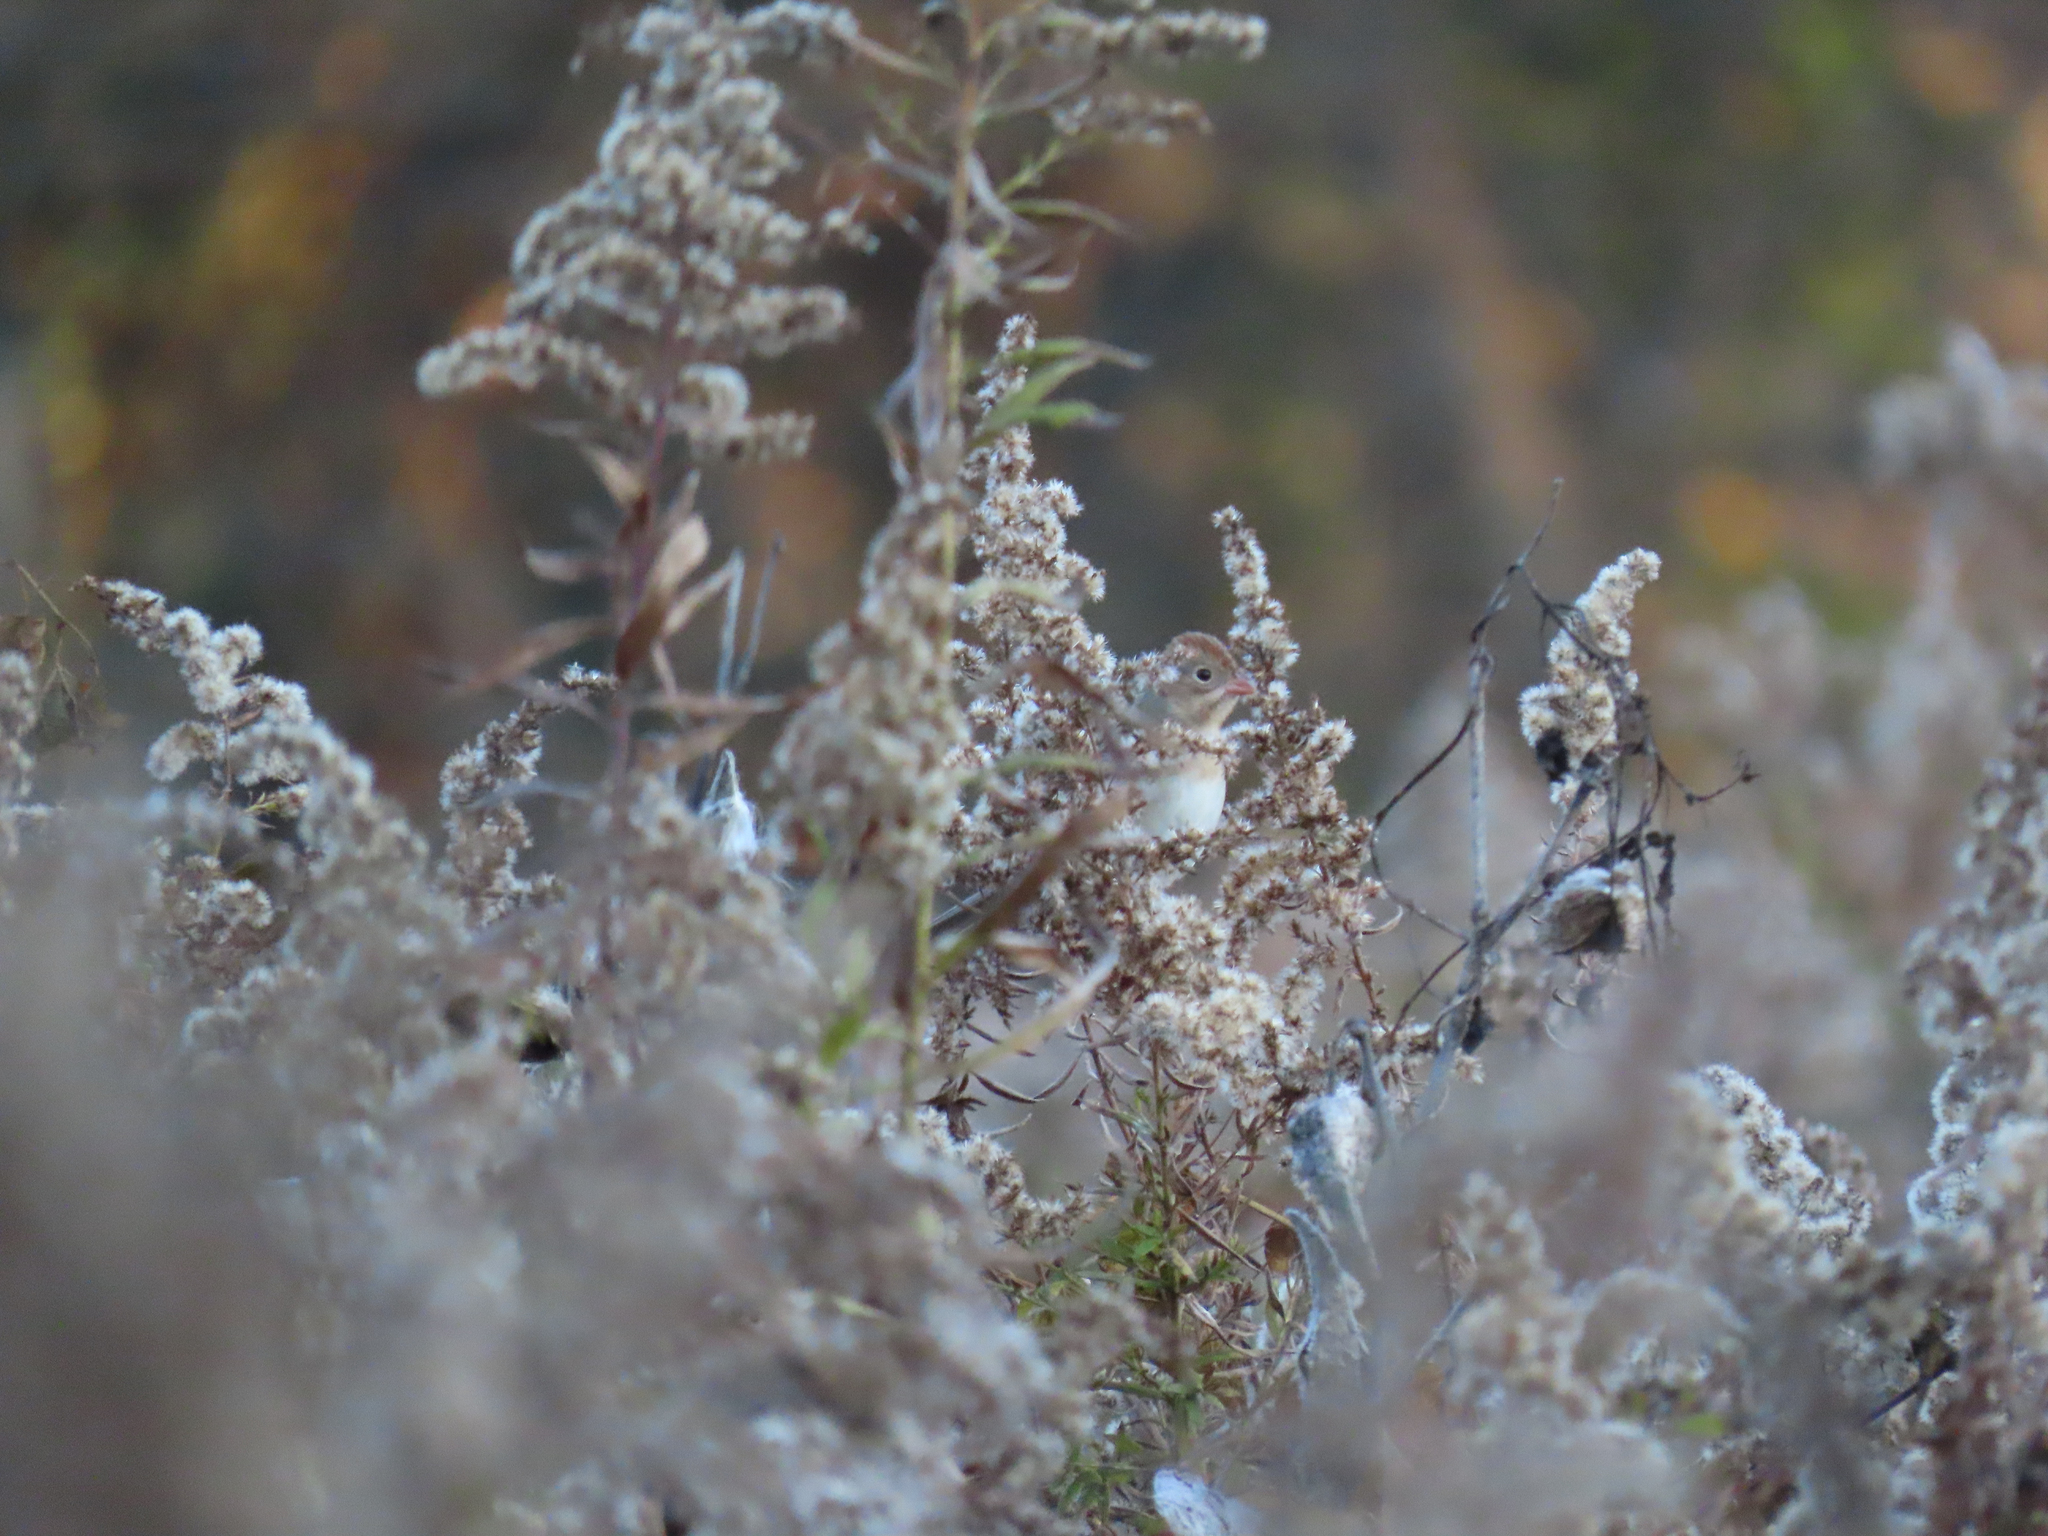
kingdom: Animalia
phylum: Chordata
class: Aves
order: Passeriformes
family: Passerellidae
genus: Spizella
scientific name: Spizella pusilla
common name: Field sparrow
